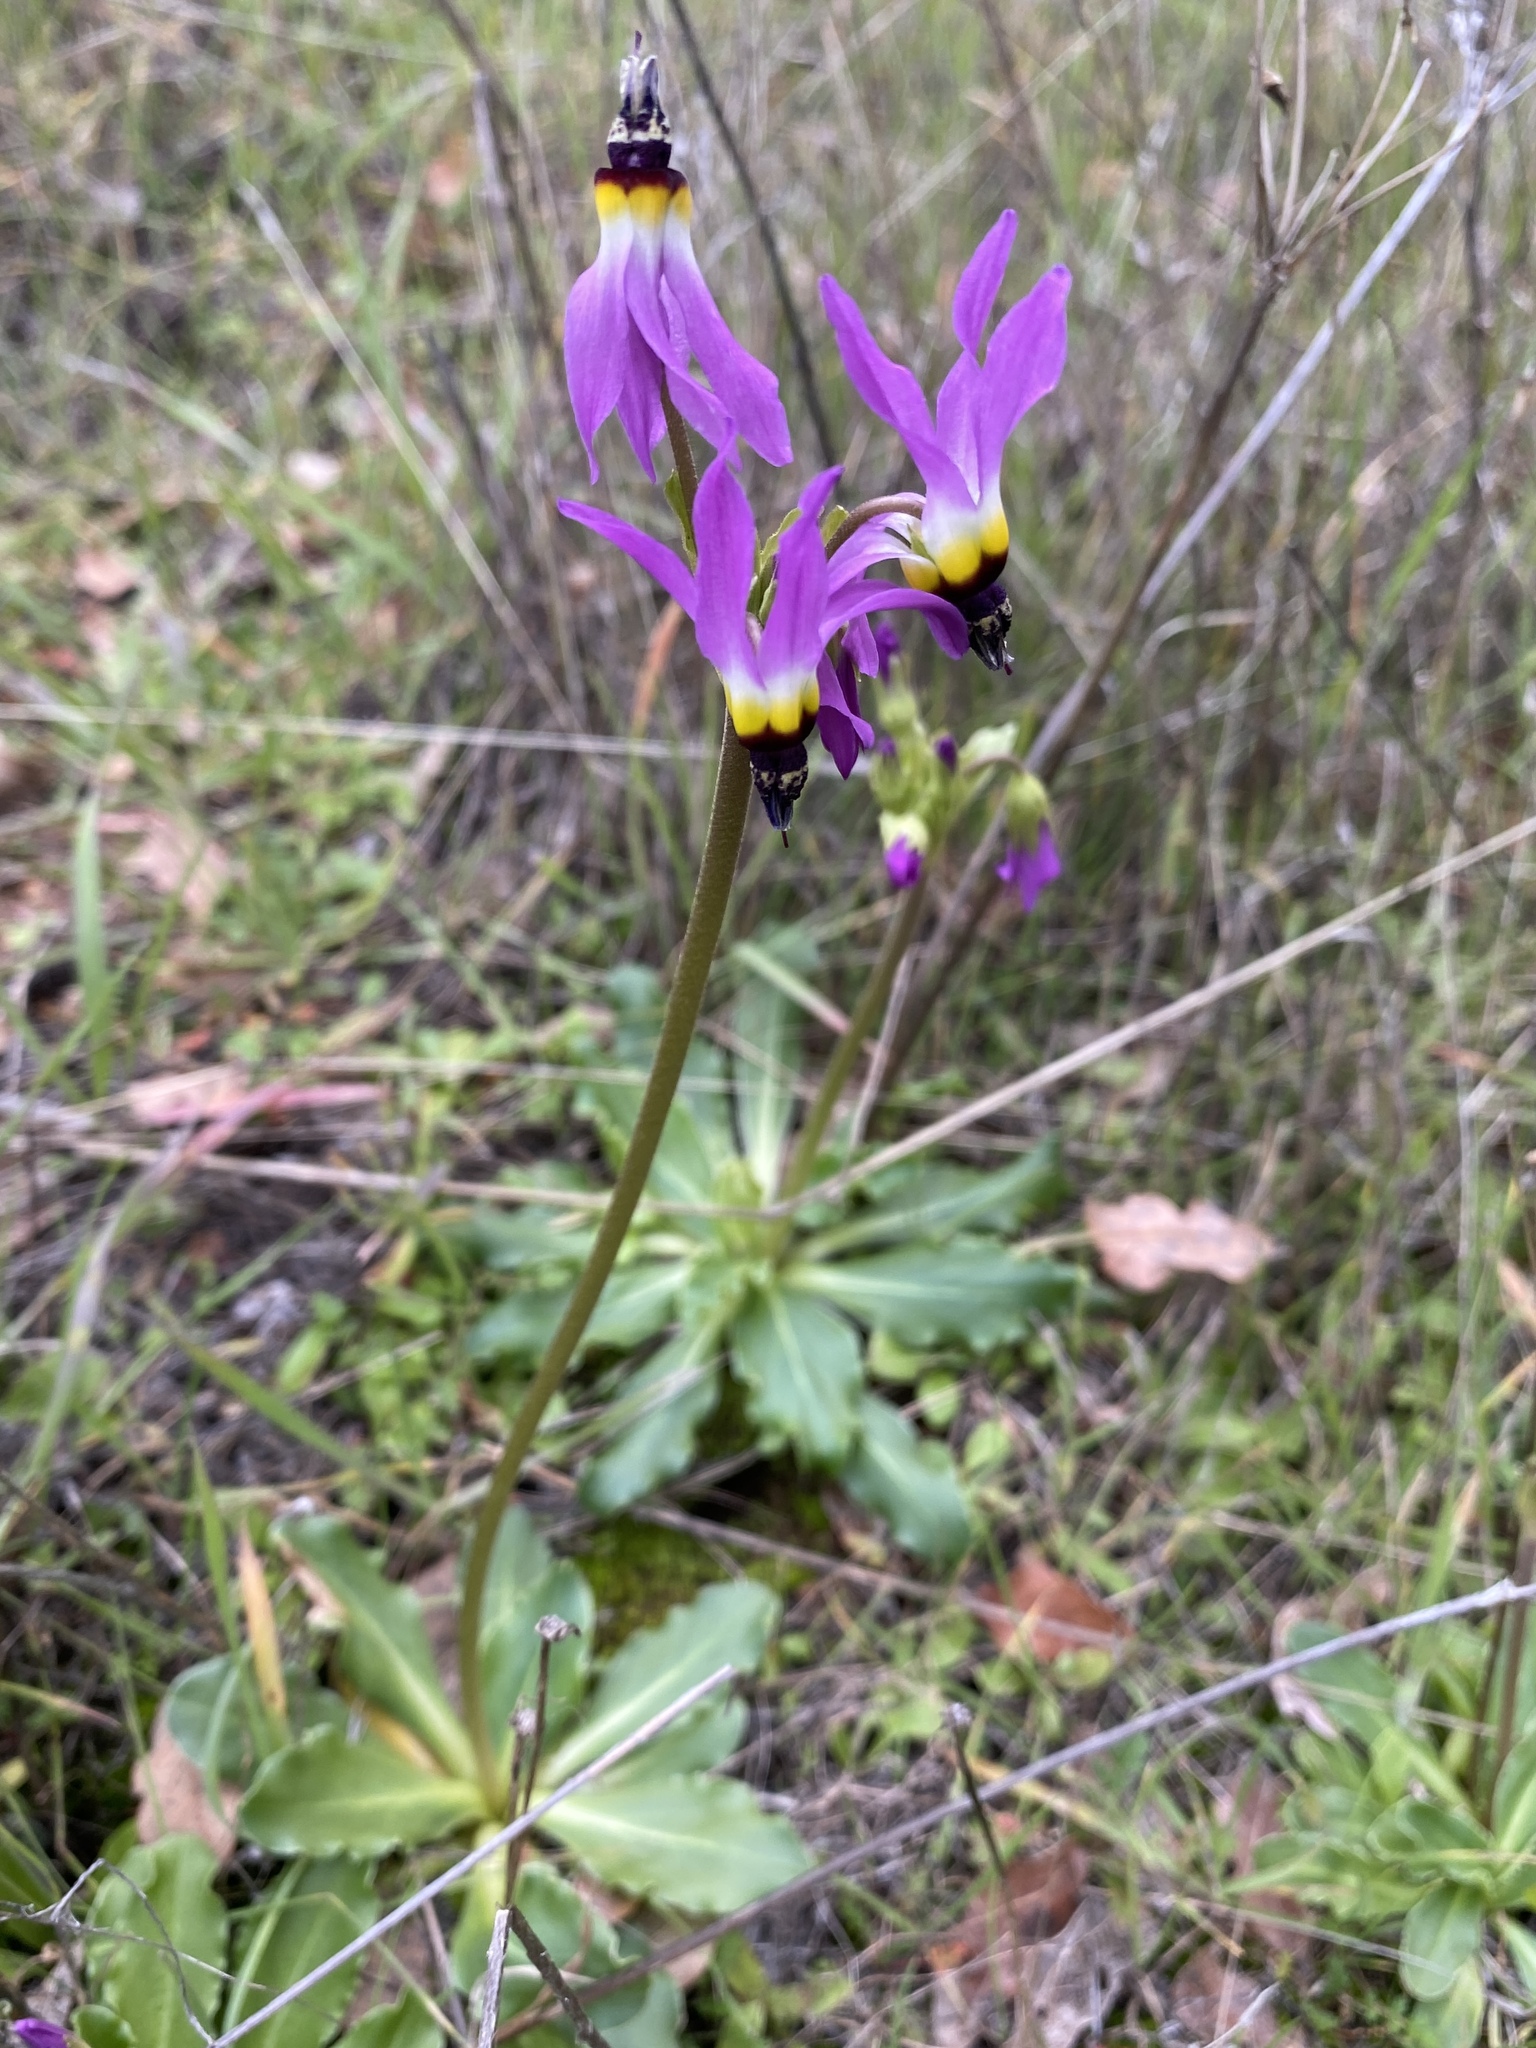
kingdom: Plantae
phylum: Tracheophyta
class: Magnoliopsida
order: Ericales
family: Primulaceae
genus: Dodecatheon
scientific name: Dodecatheon clevelandii
